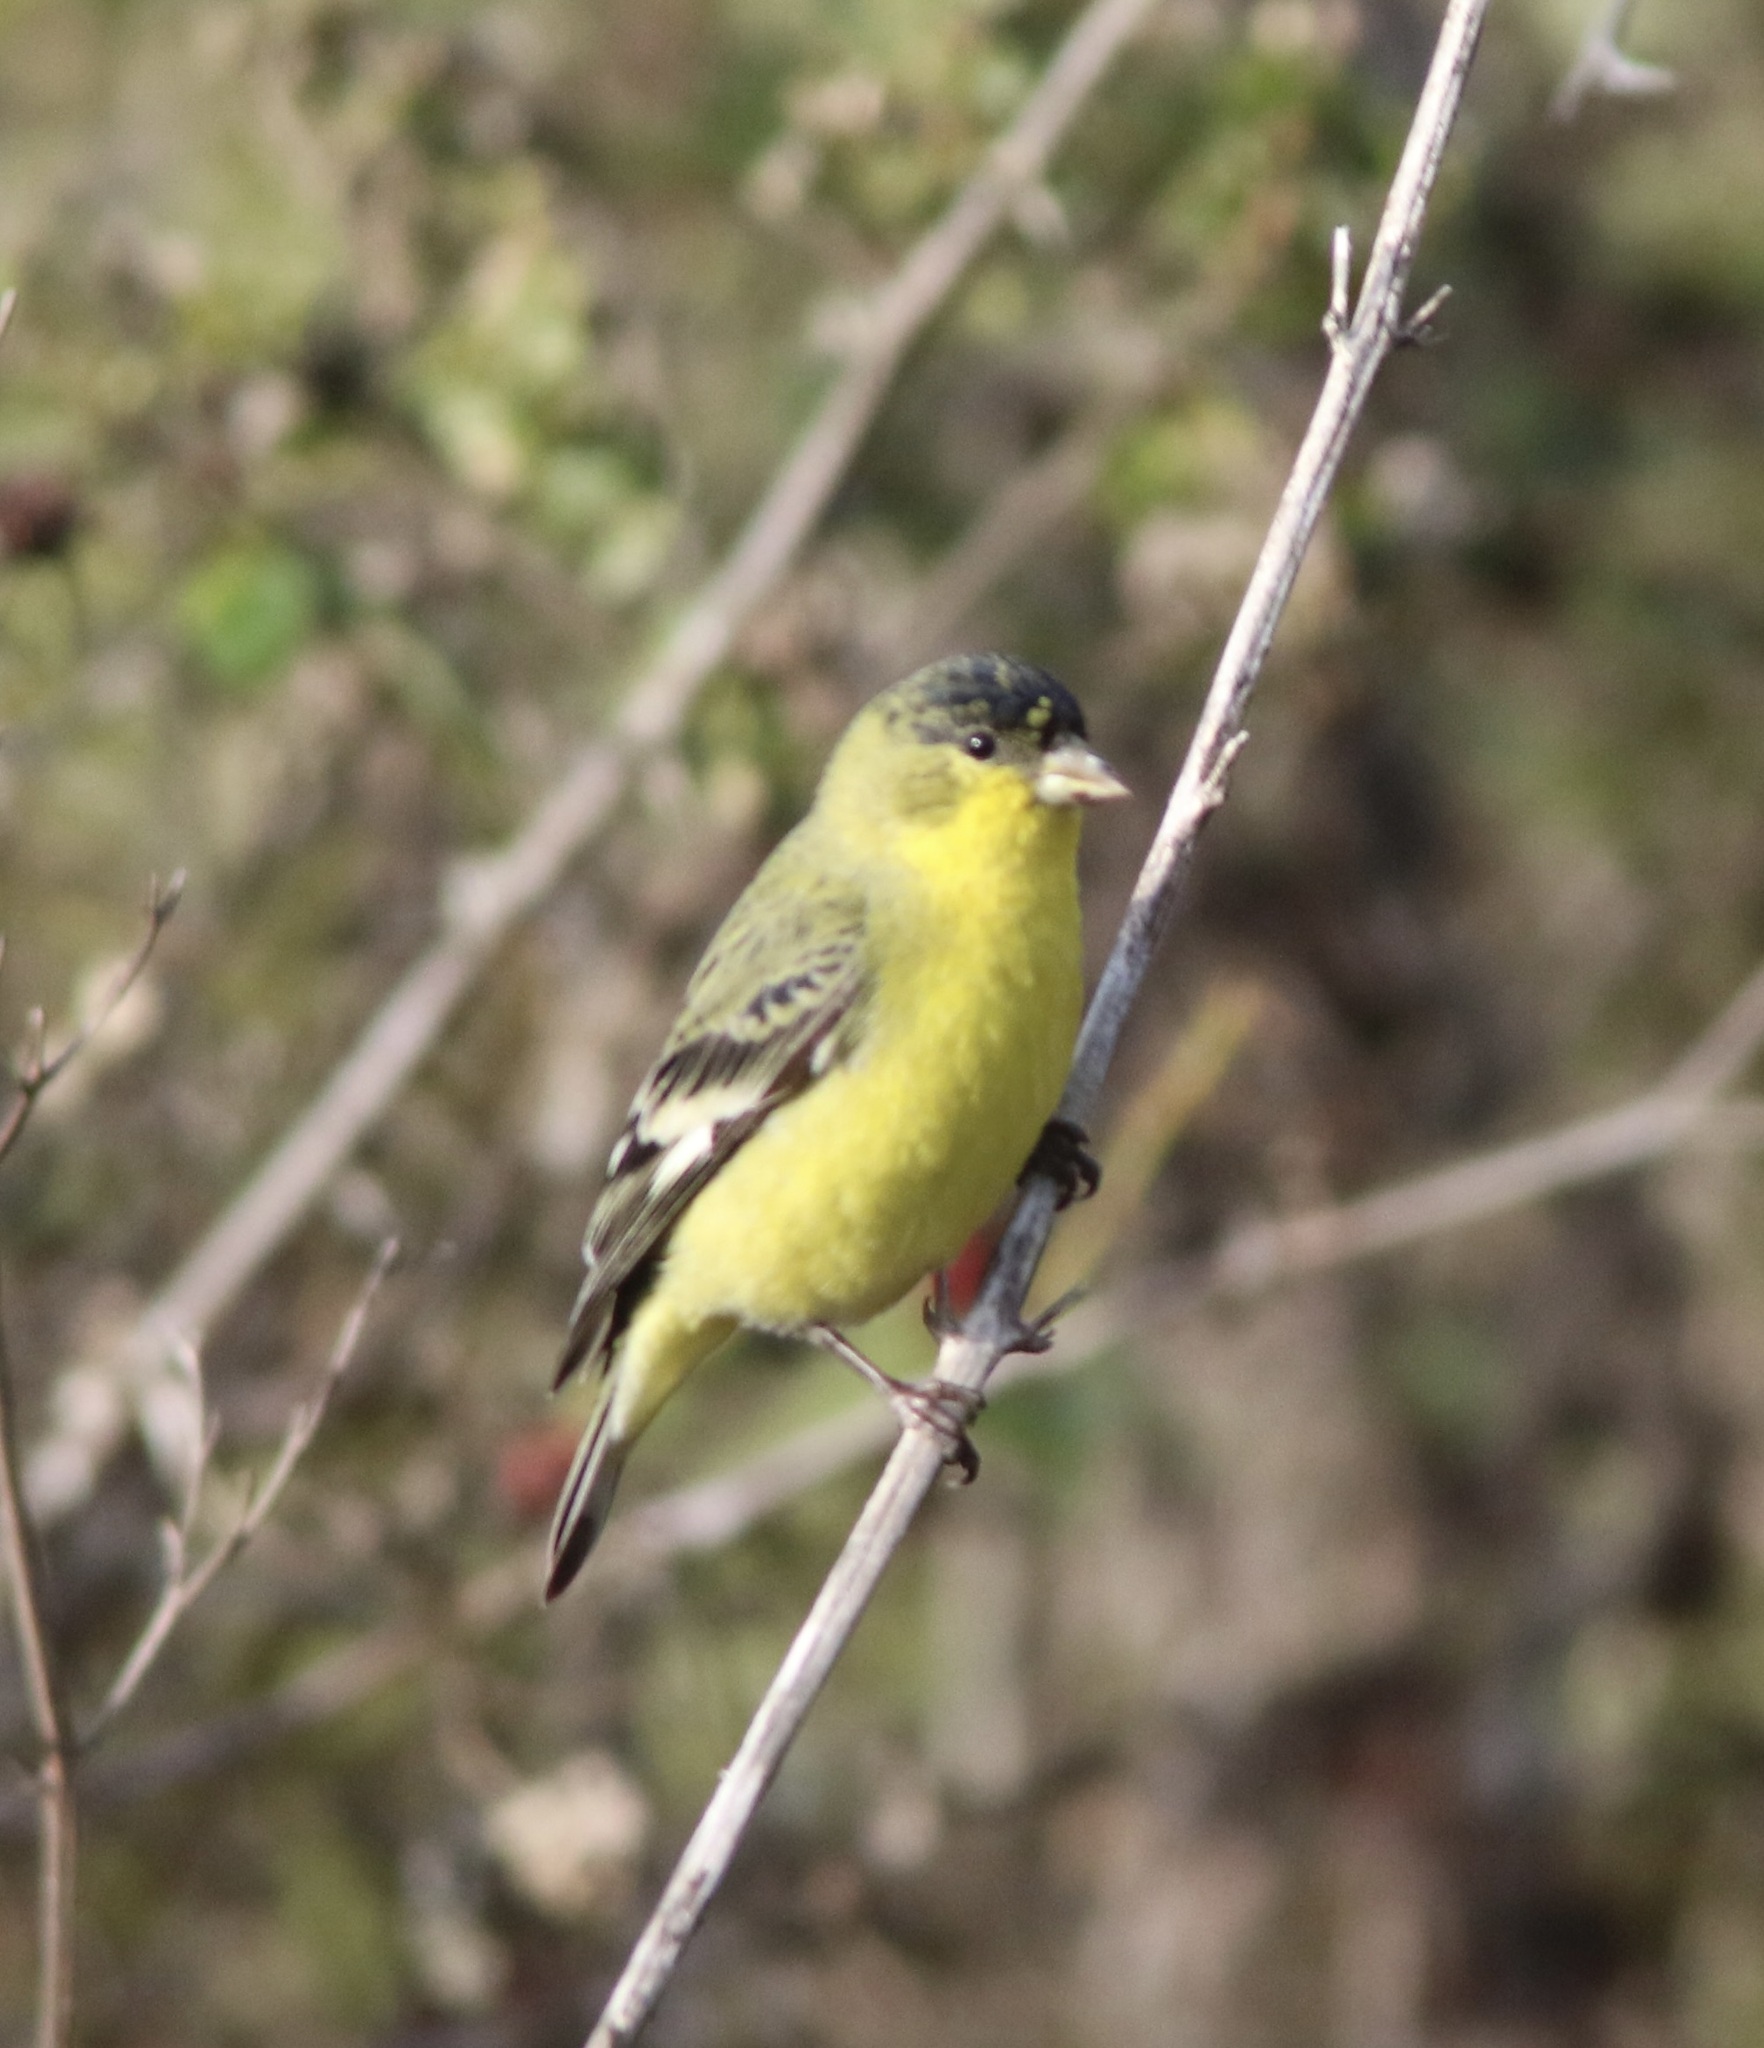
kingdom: Animalia
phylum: Chordata
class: Aves
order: Passeriformes
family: Fringillidae
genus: Spinus
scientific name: Spinus psaltria
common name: Lesser goldfinch
